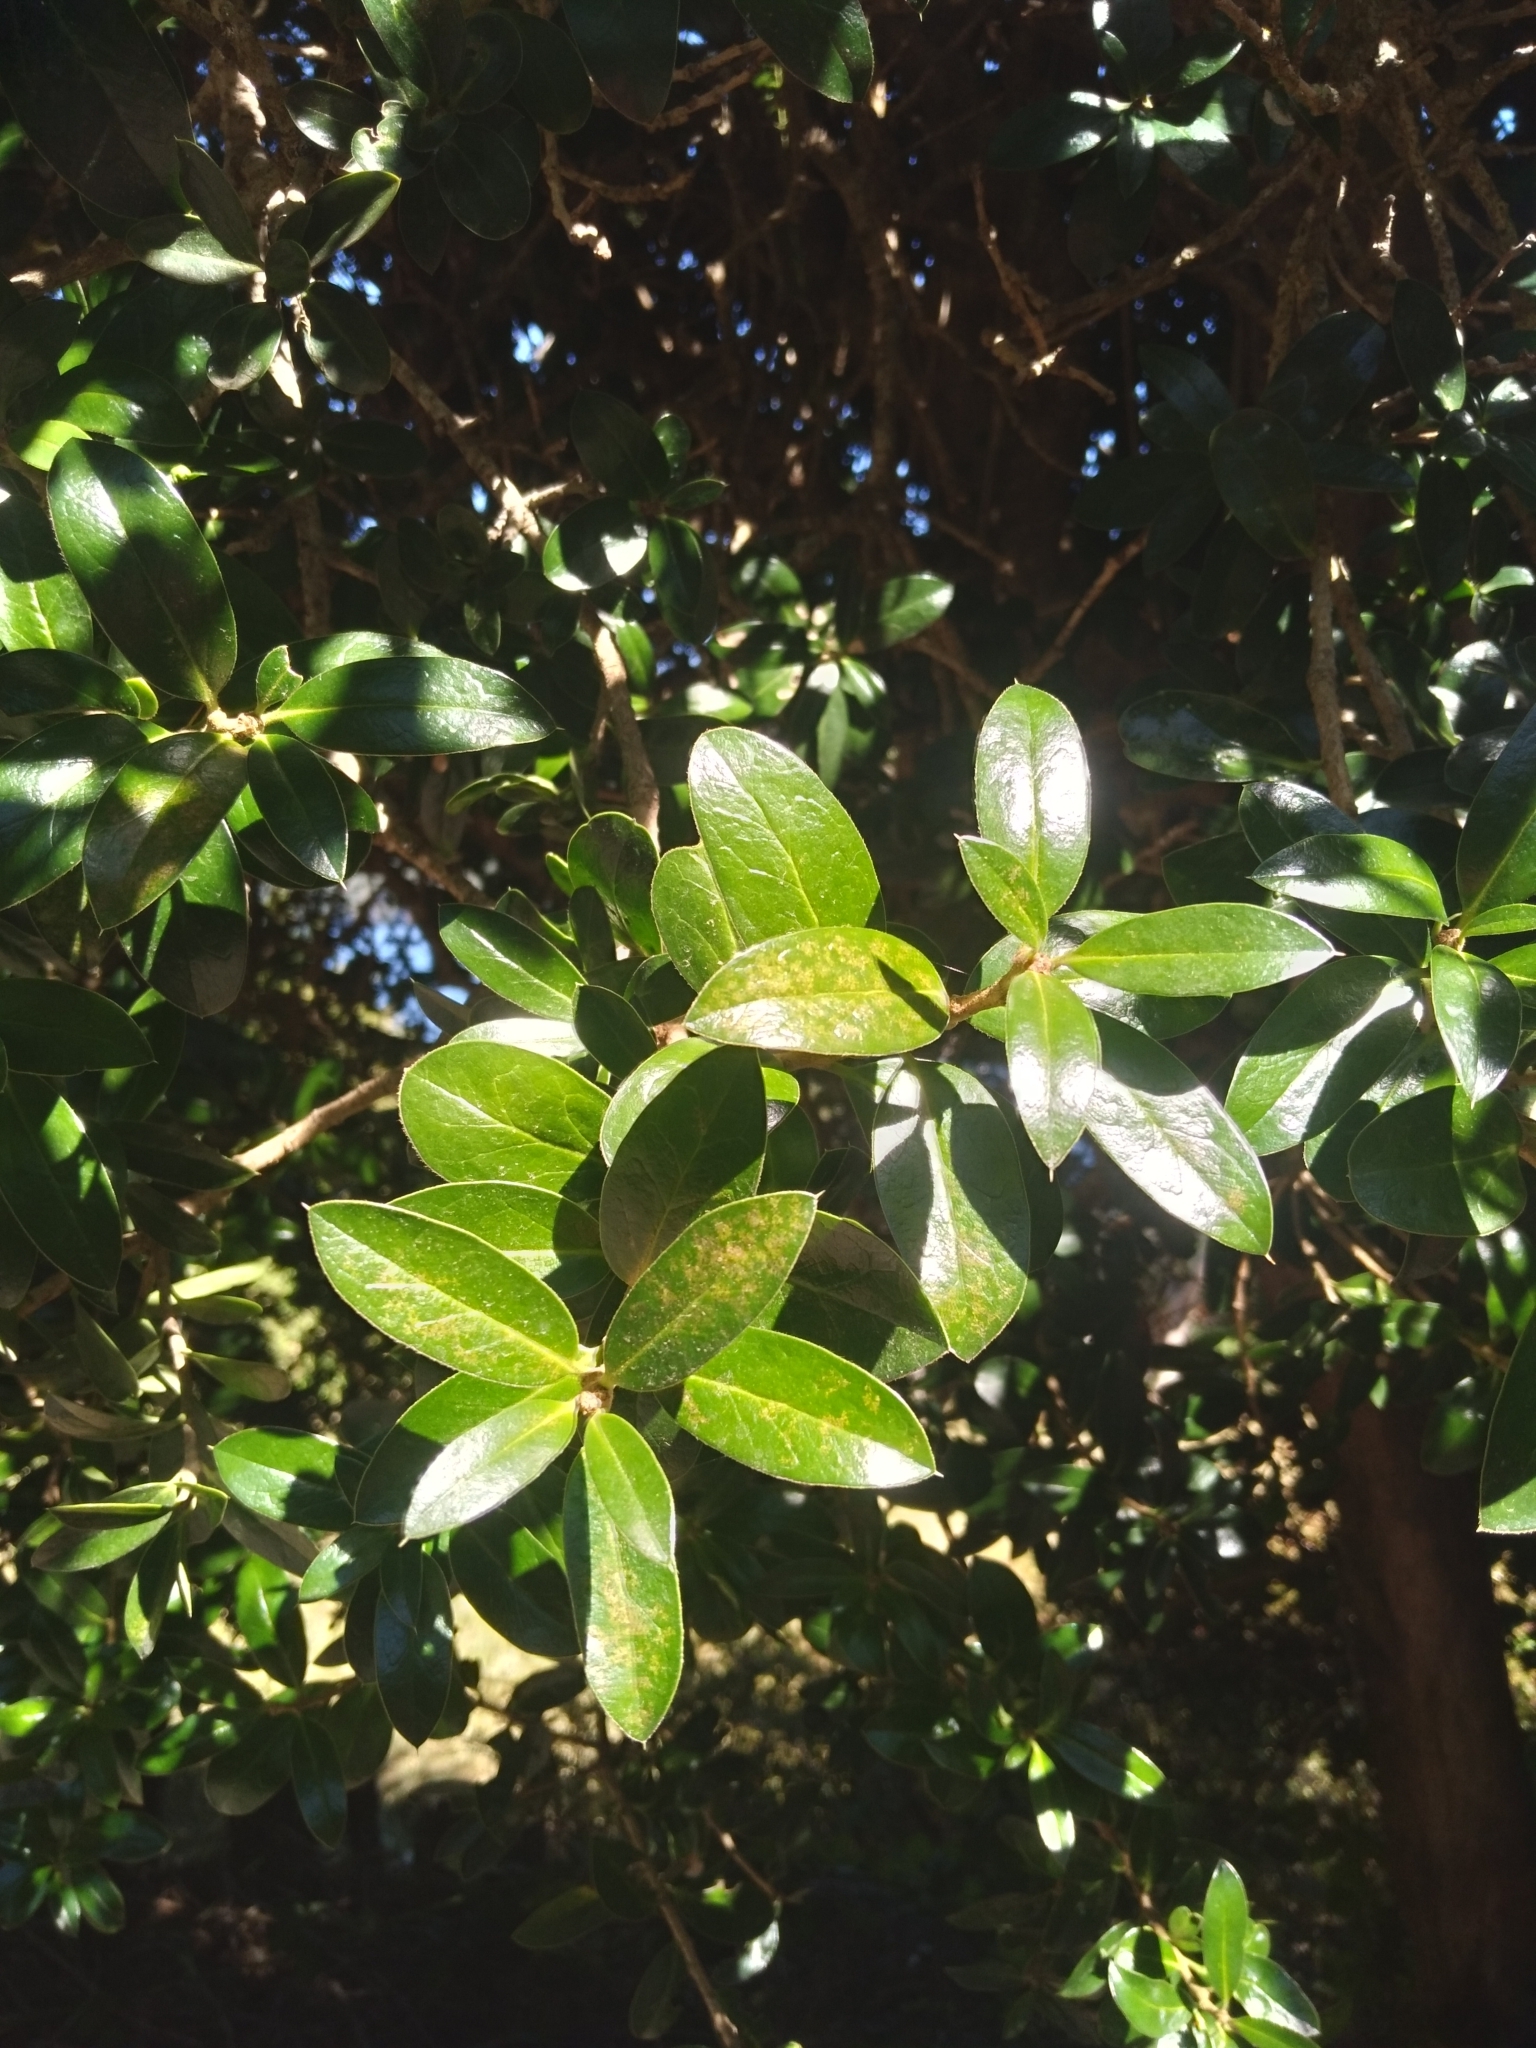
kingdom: Plantae
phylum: Tracheophyta
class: Magnoliopsida
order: Asterales
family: Asteraceae
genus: Archidasyphyllum
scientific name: Archidasyphyllum diacanthoides
